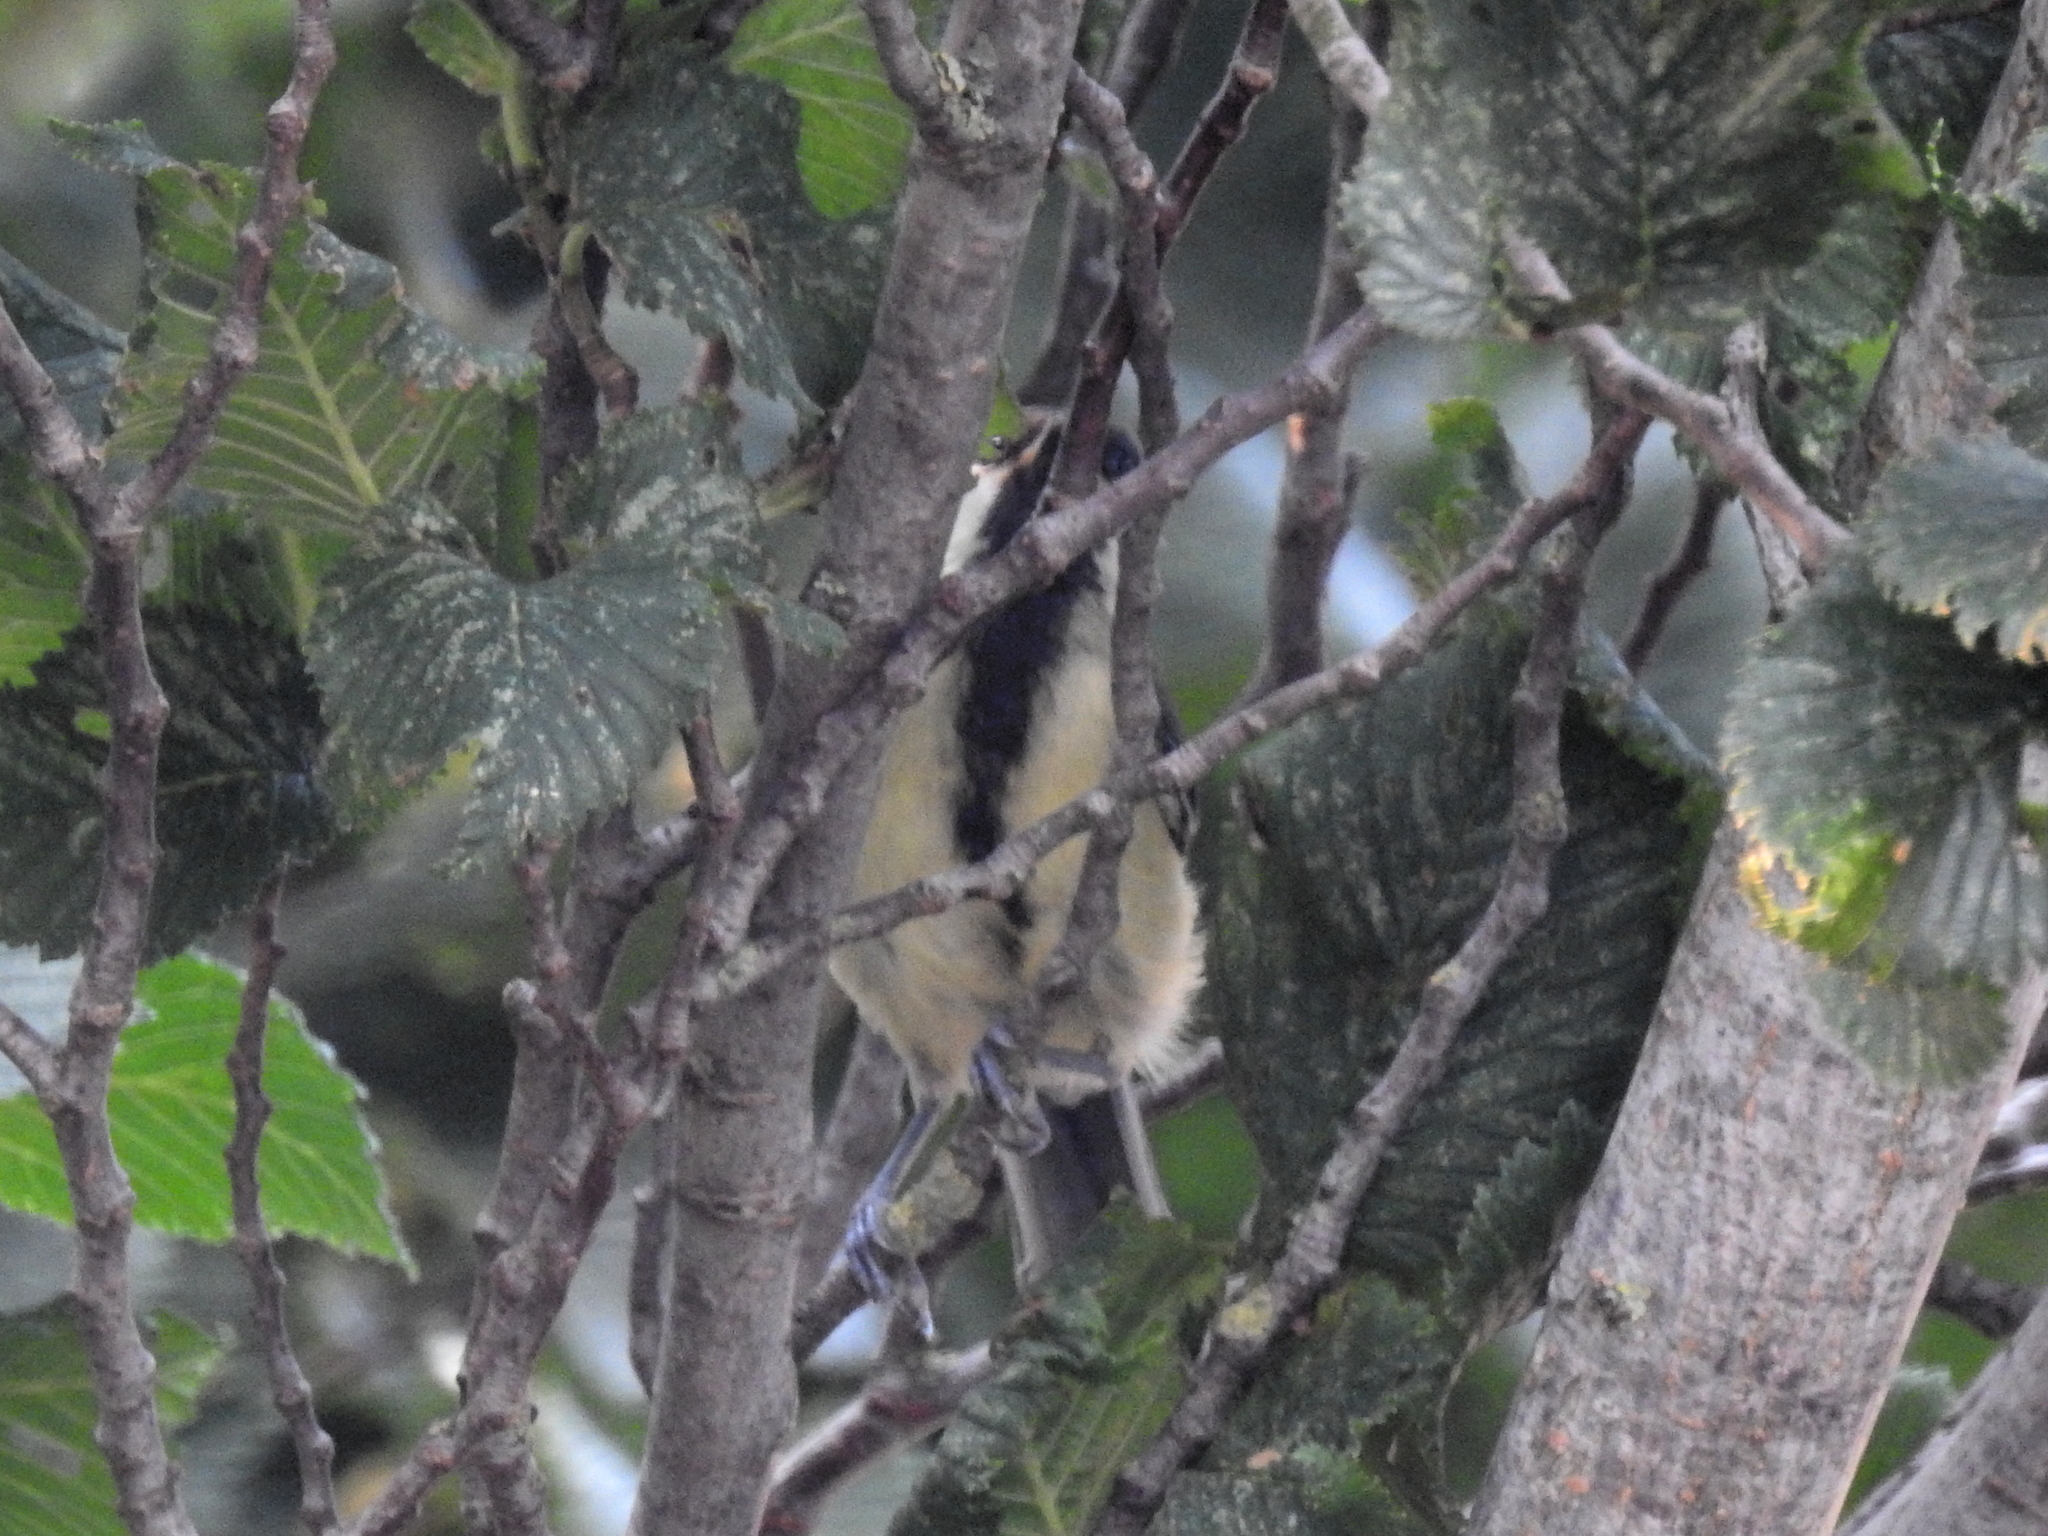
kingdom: Animalia
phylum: Chordata
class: Aves
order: Passeriformes
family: Paridae
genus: Parus
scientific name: Parus major
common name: Great tit
